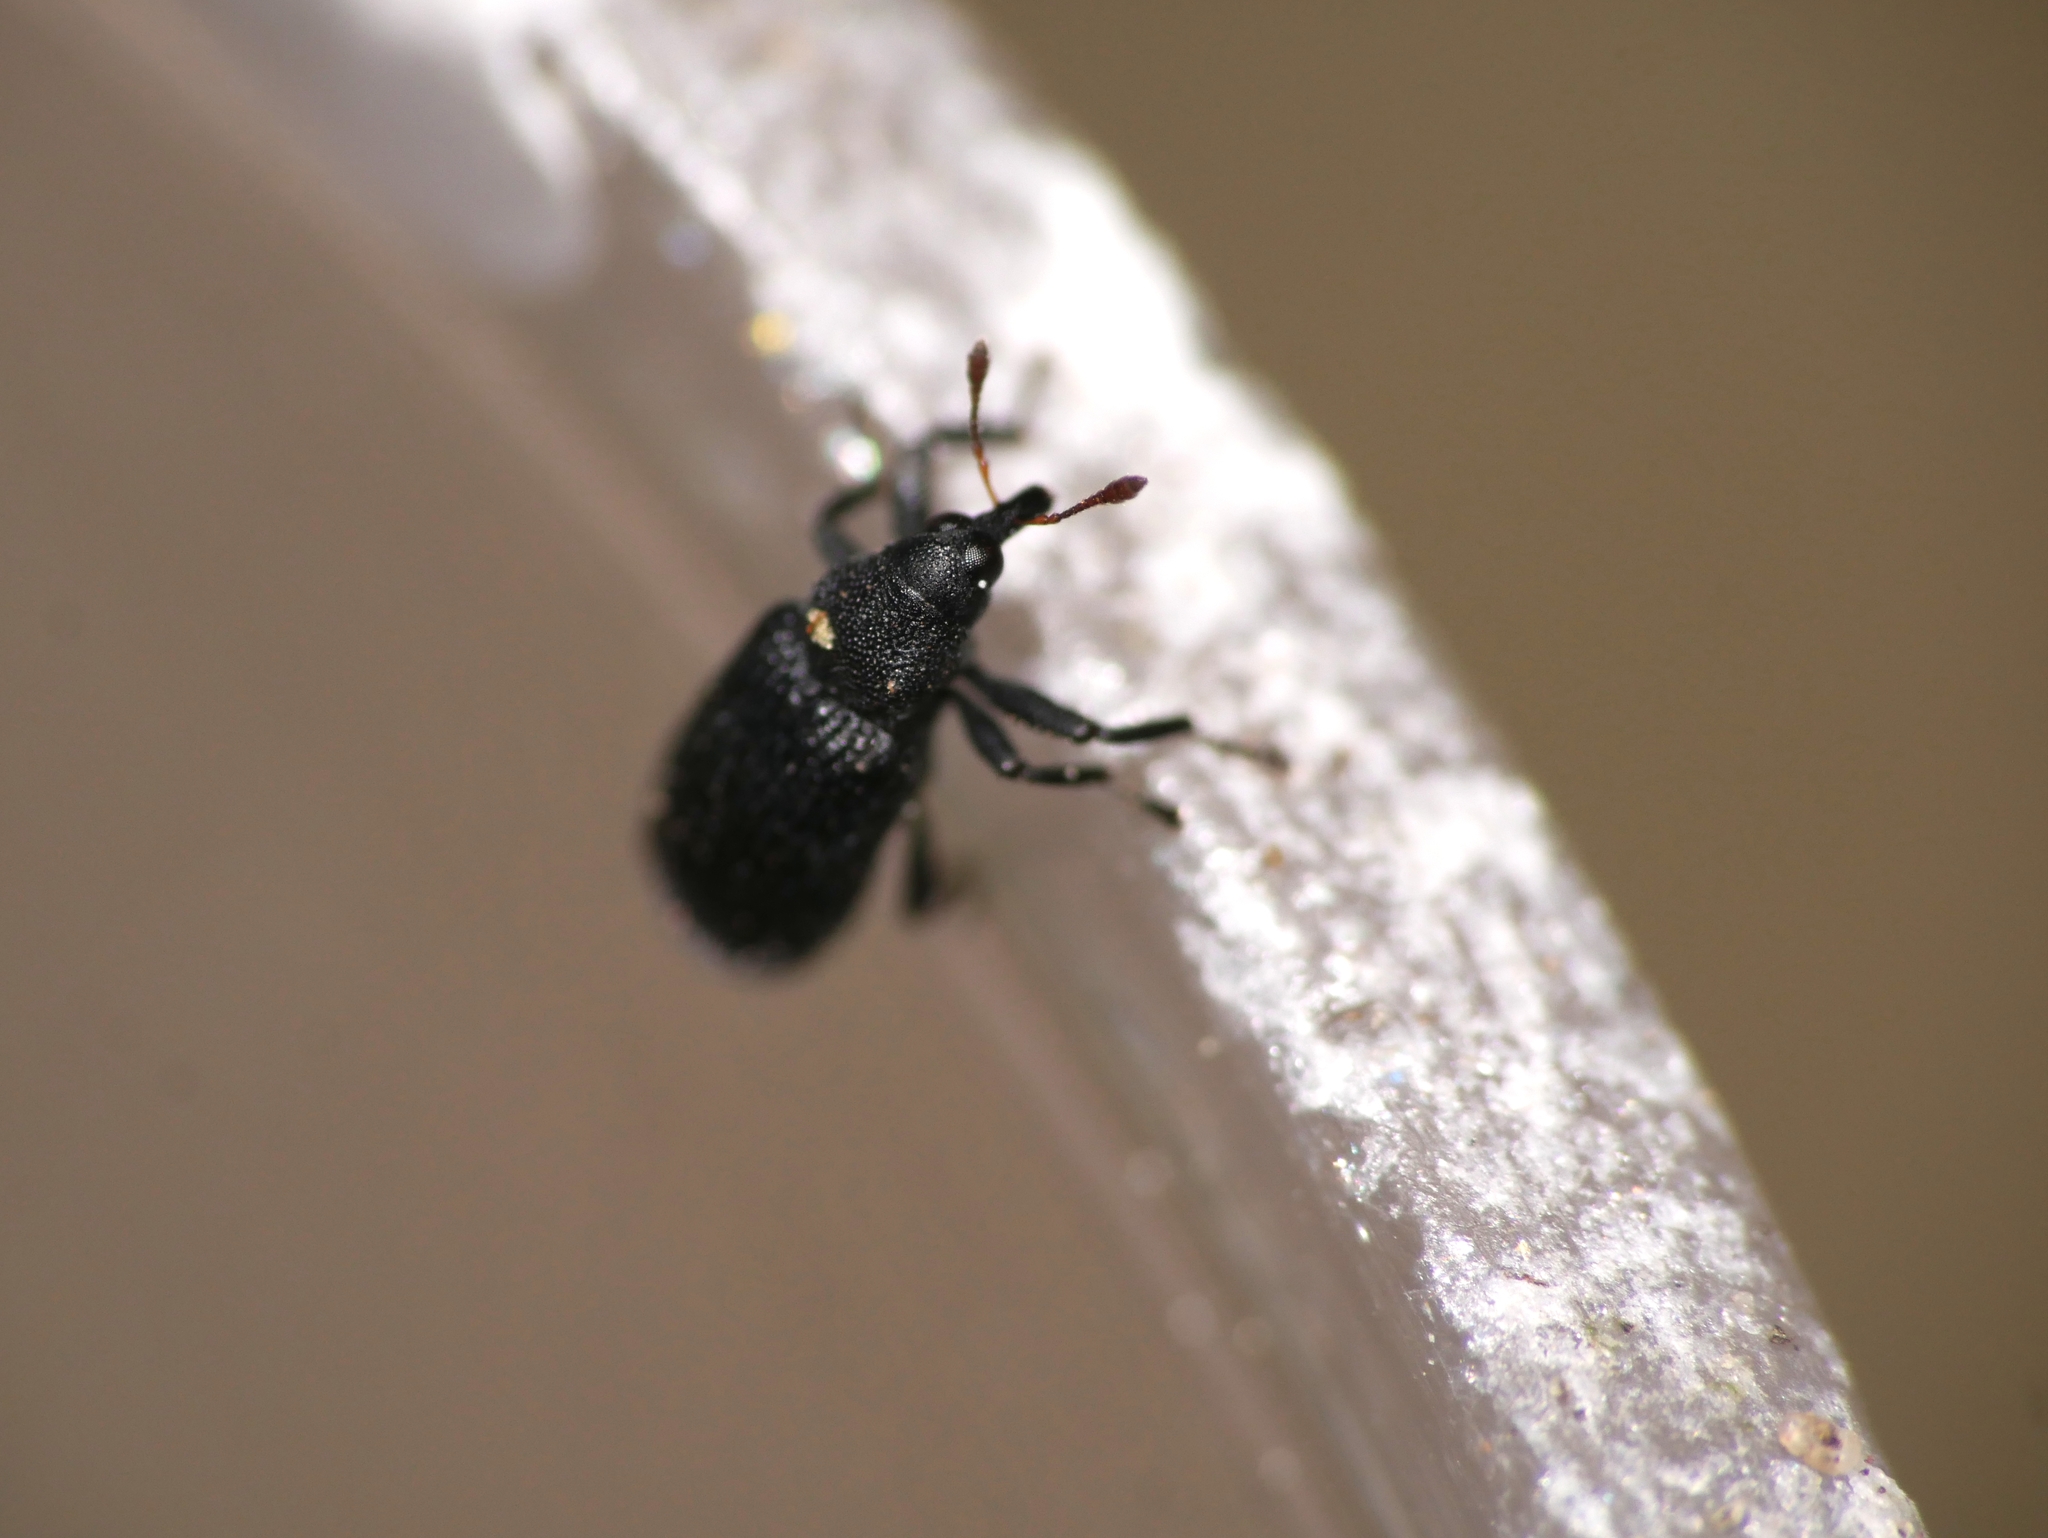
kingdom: Animalia
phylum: Arthropoda
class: Insecta
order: Coleoptera
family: Curculionidae
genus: Magdalis
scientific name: Magdalis ruficornis
